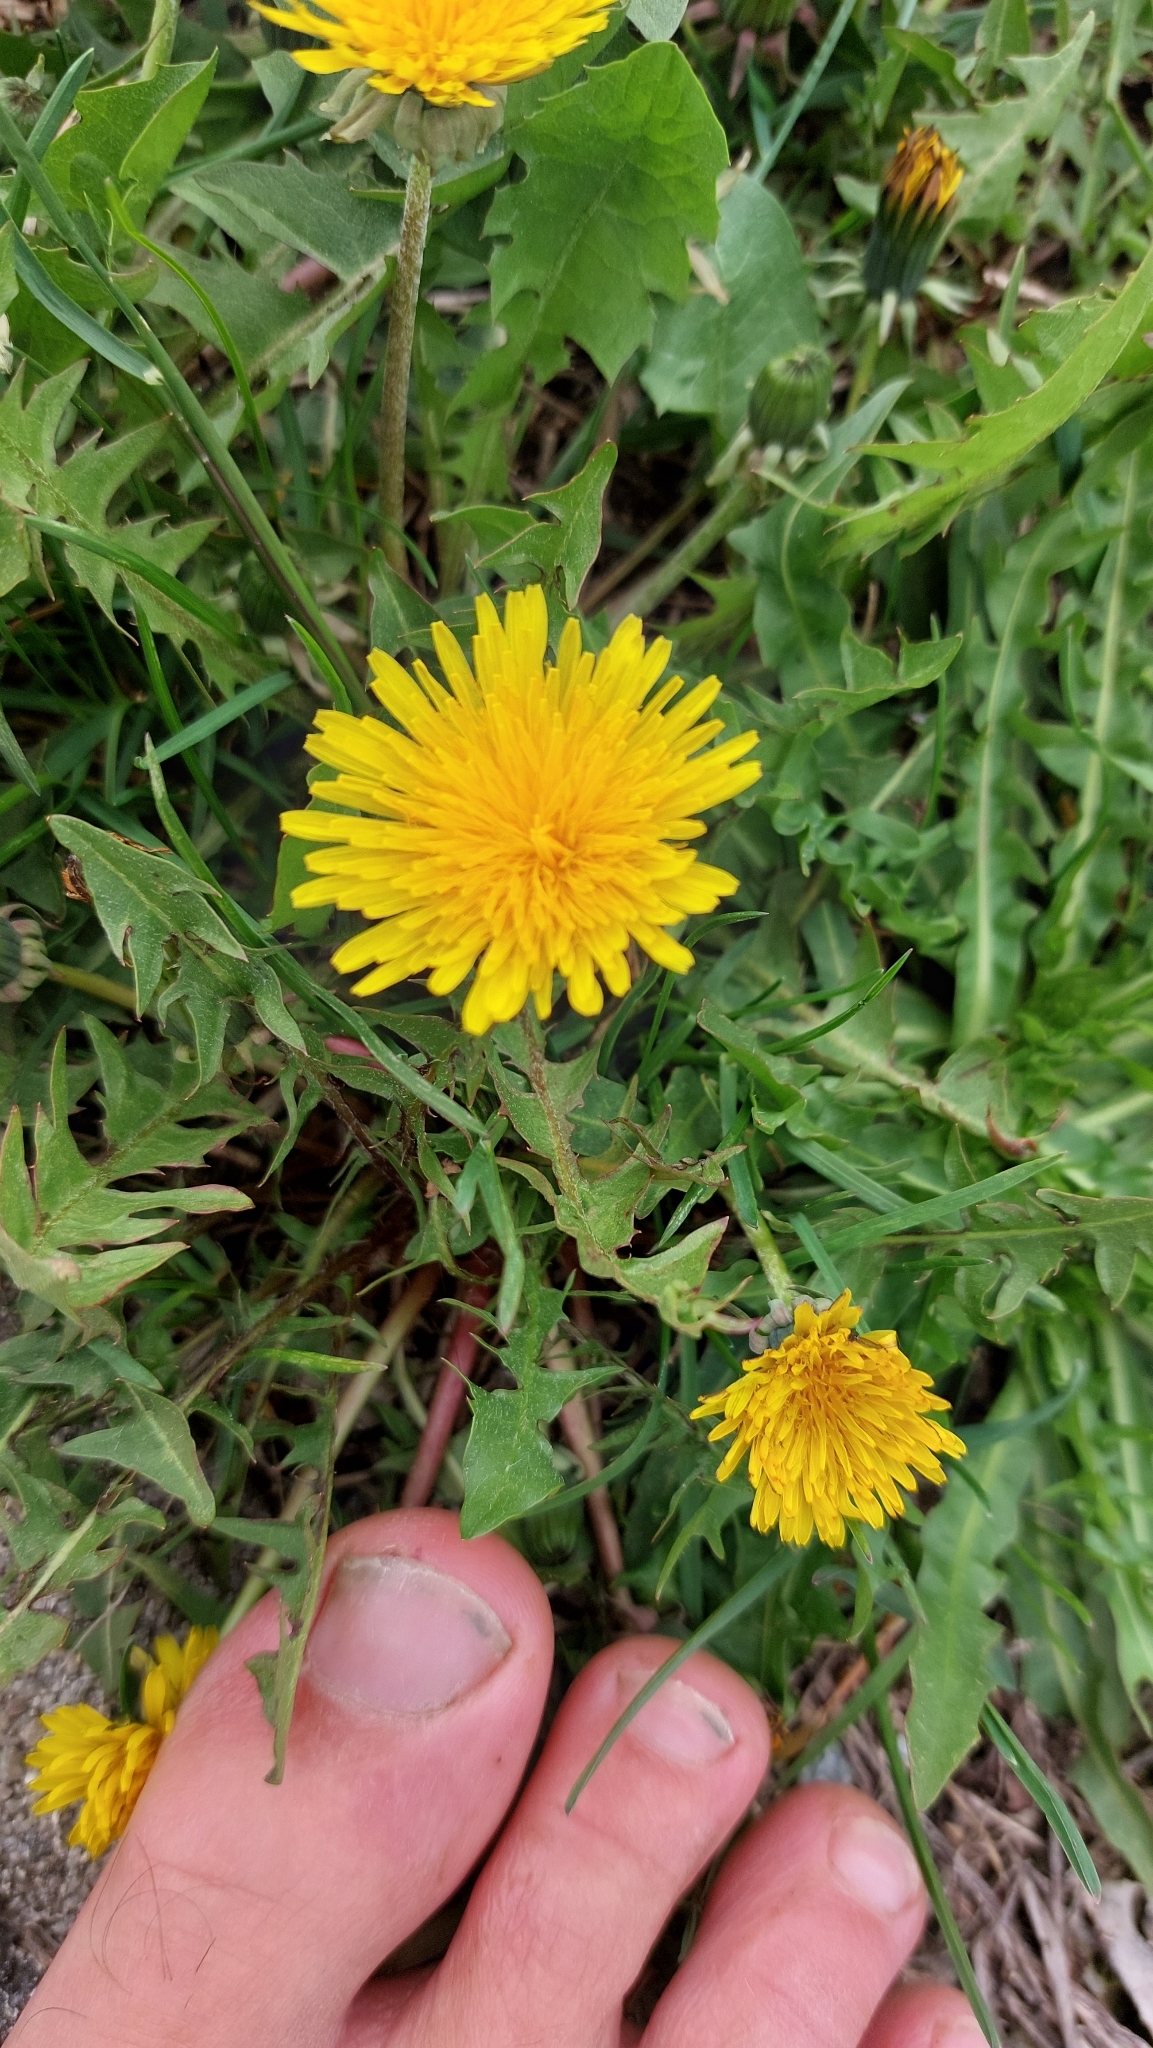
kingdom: Plantae
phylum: Tracheophyta
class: Magnoliopsida
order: Asterales
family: Asteraceae
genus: Taraxacum
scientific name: Taraxacum
